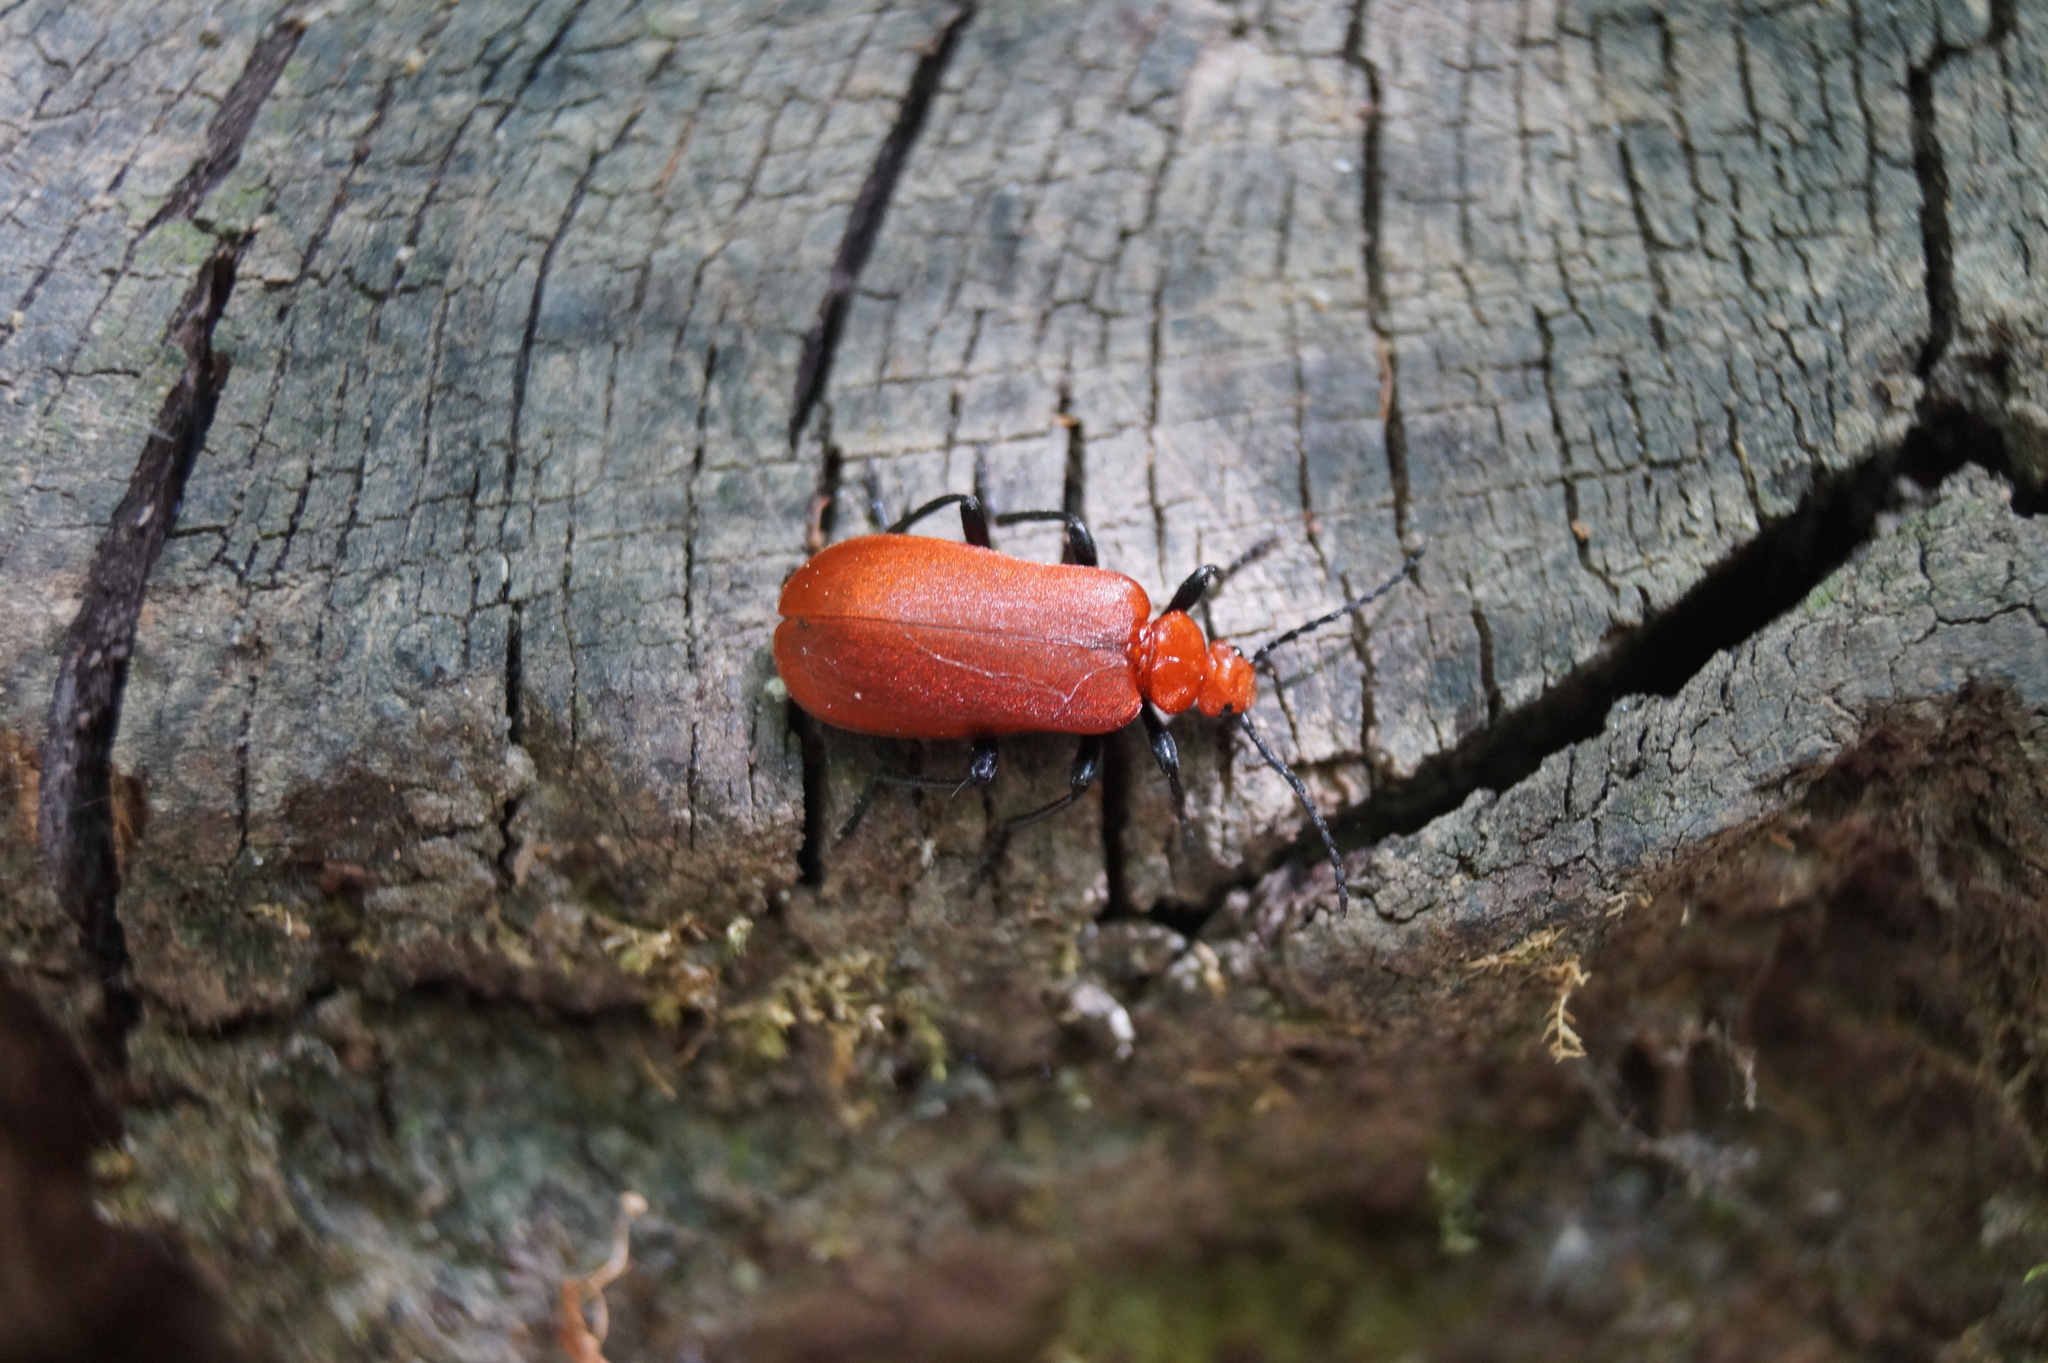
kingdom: Animalia
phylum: Arthropoda
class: Insecta
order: Coleoptera
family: Pyrochroidae
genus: Pyrochroa
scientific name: Pyrochroa serraticornis
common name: Red-headed cardinal beetle
